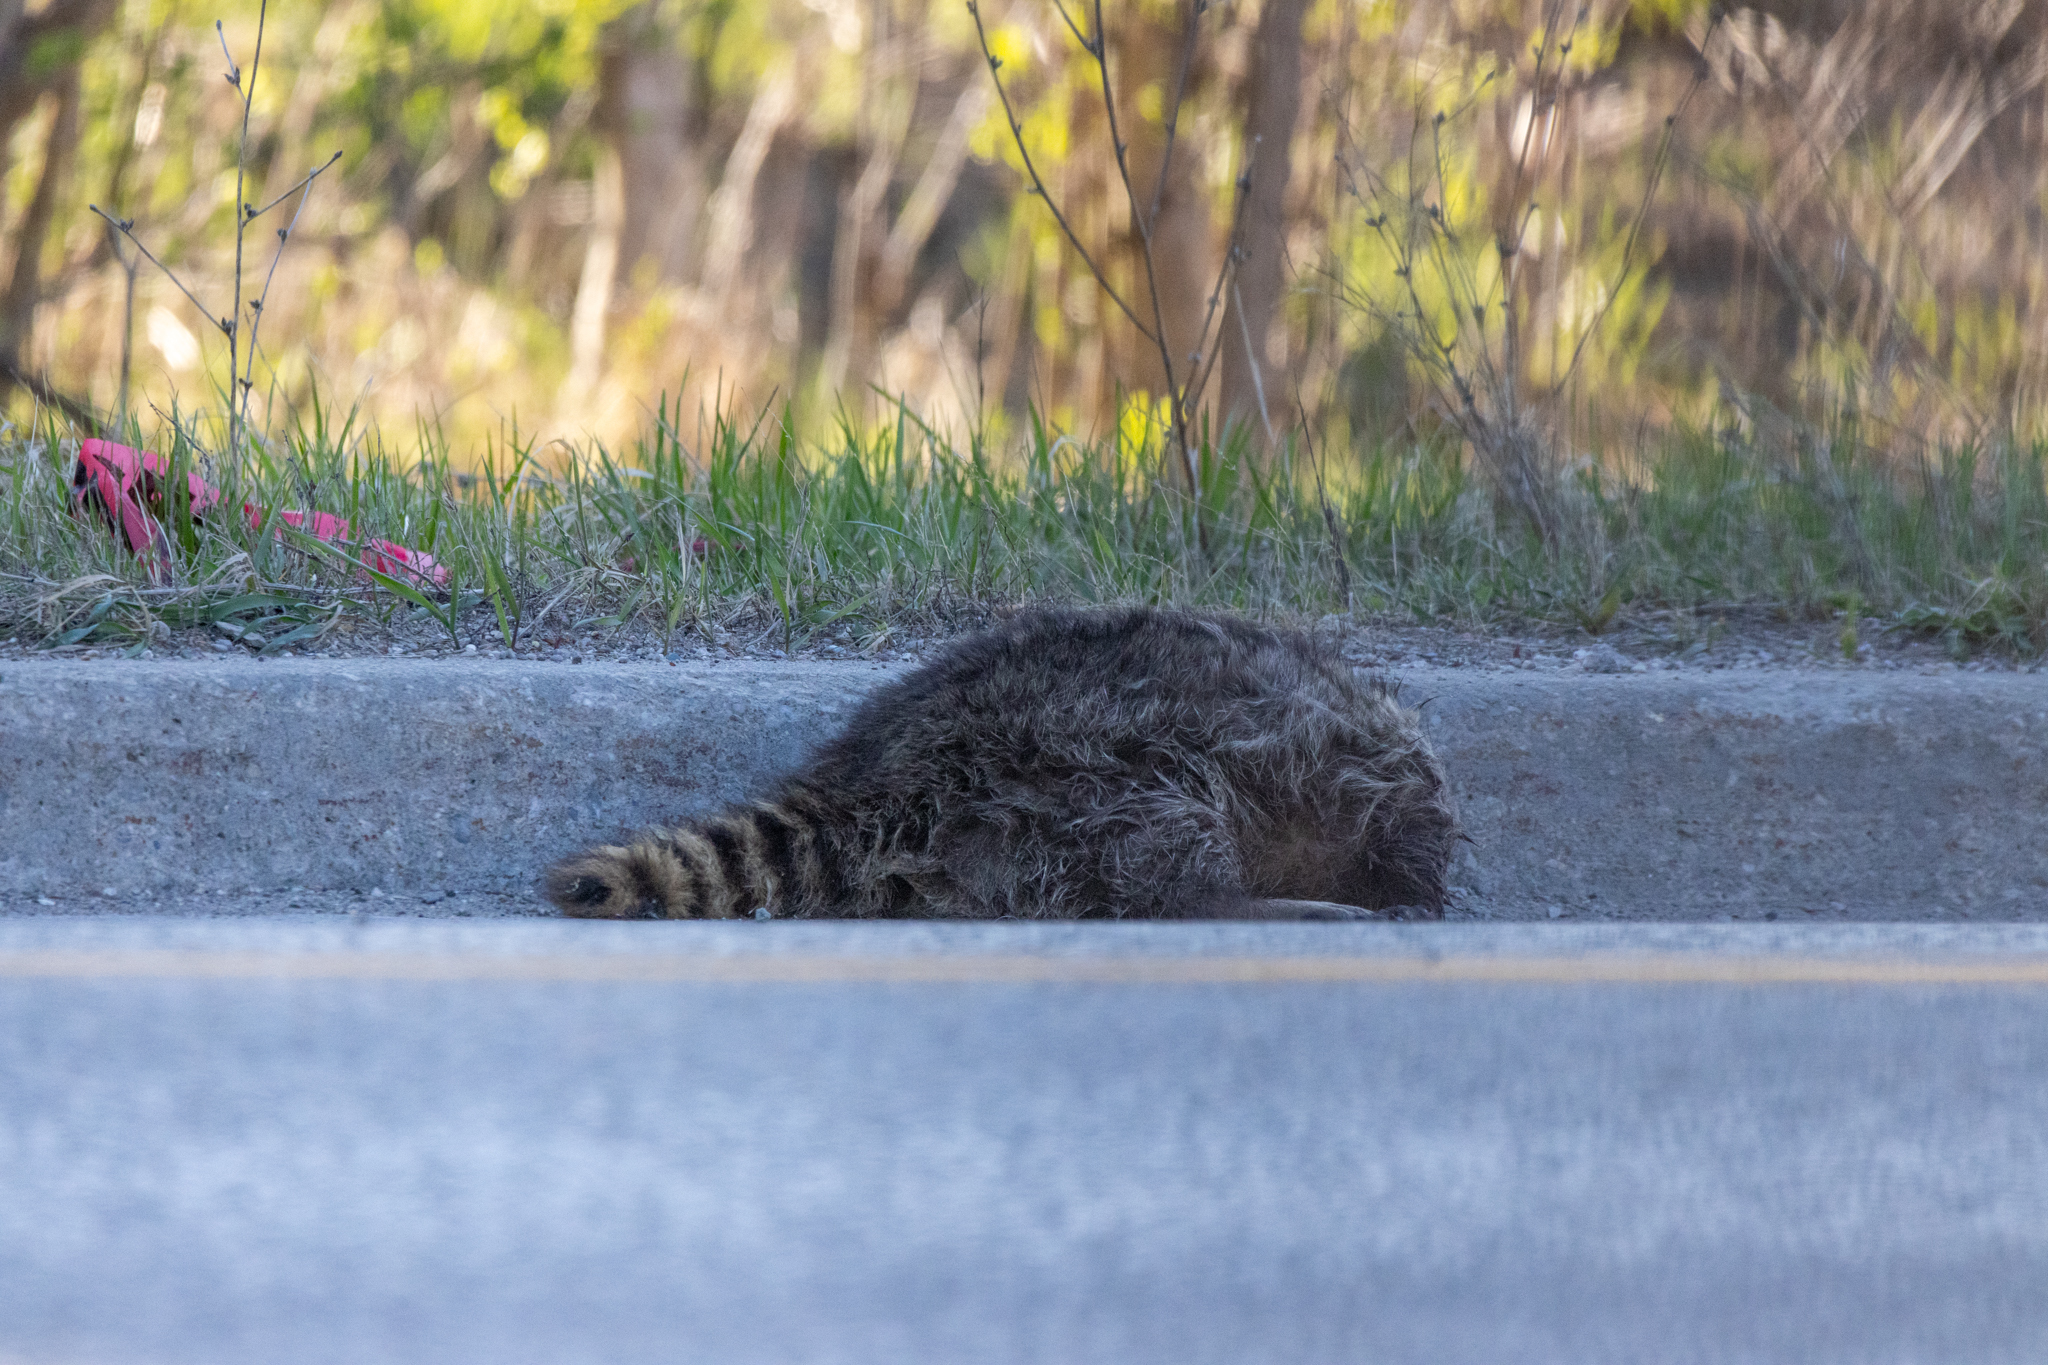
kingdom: Animalia
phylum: Chordata
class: Mammalia
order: Carnivora
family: Procyonidae
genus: Procyon
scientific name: Procyon lotor
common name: Raccoon
